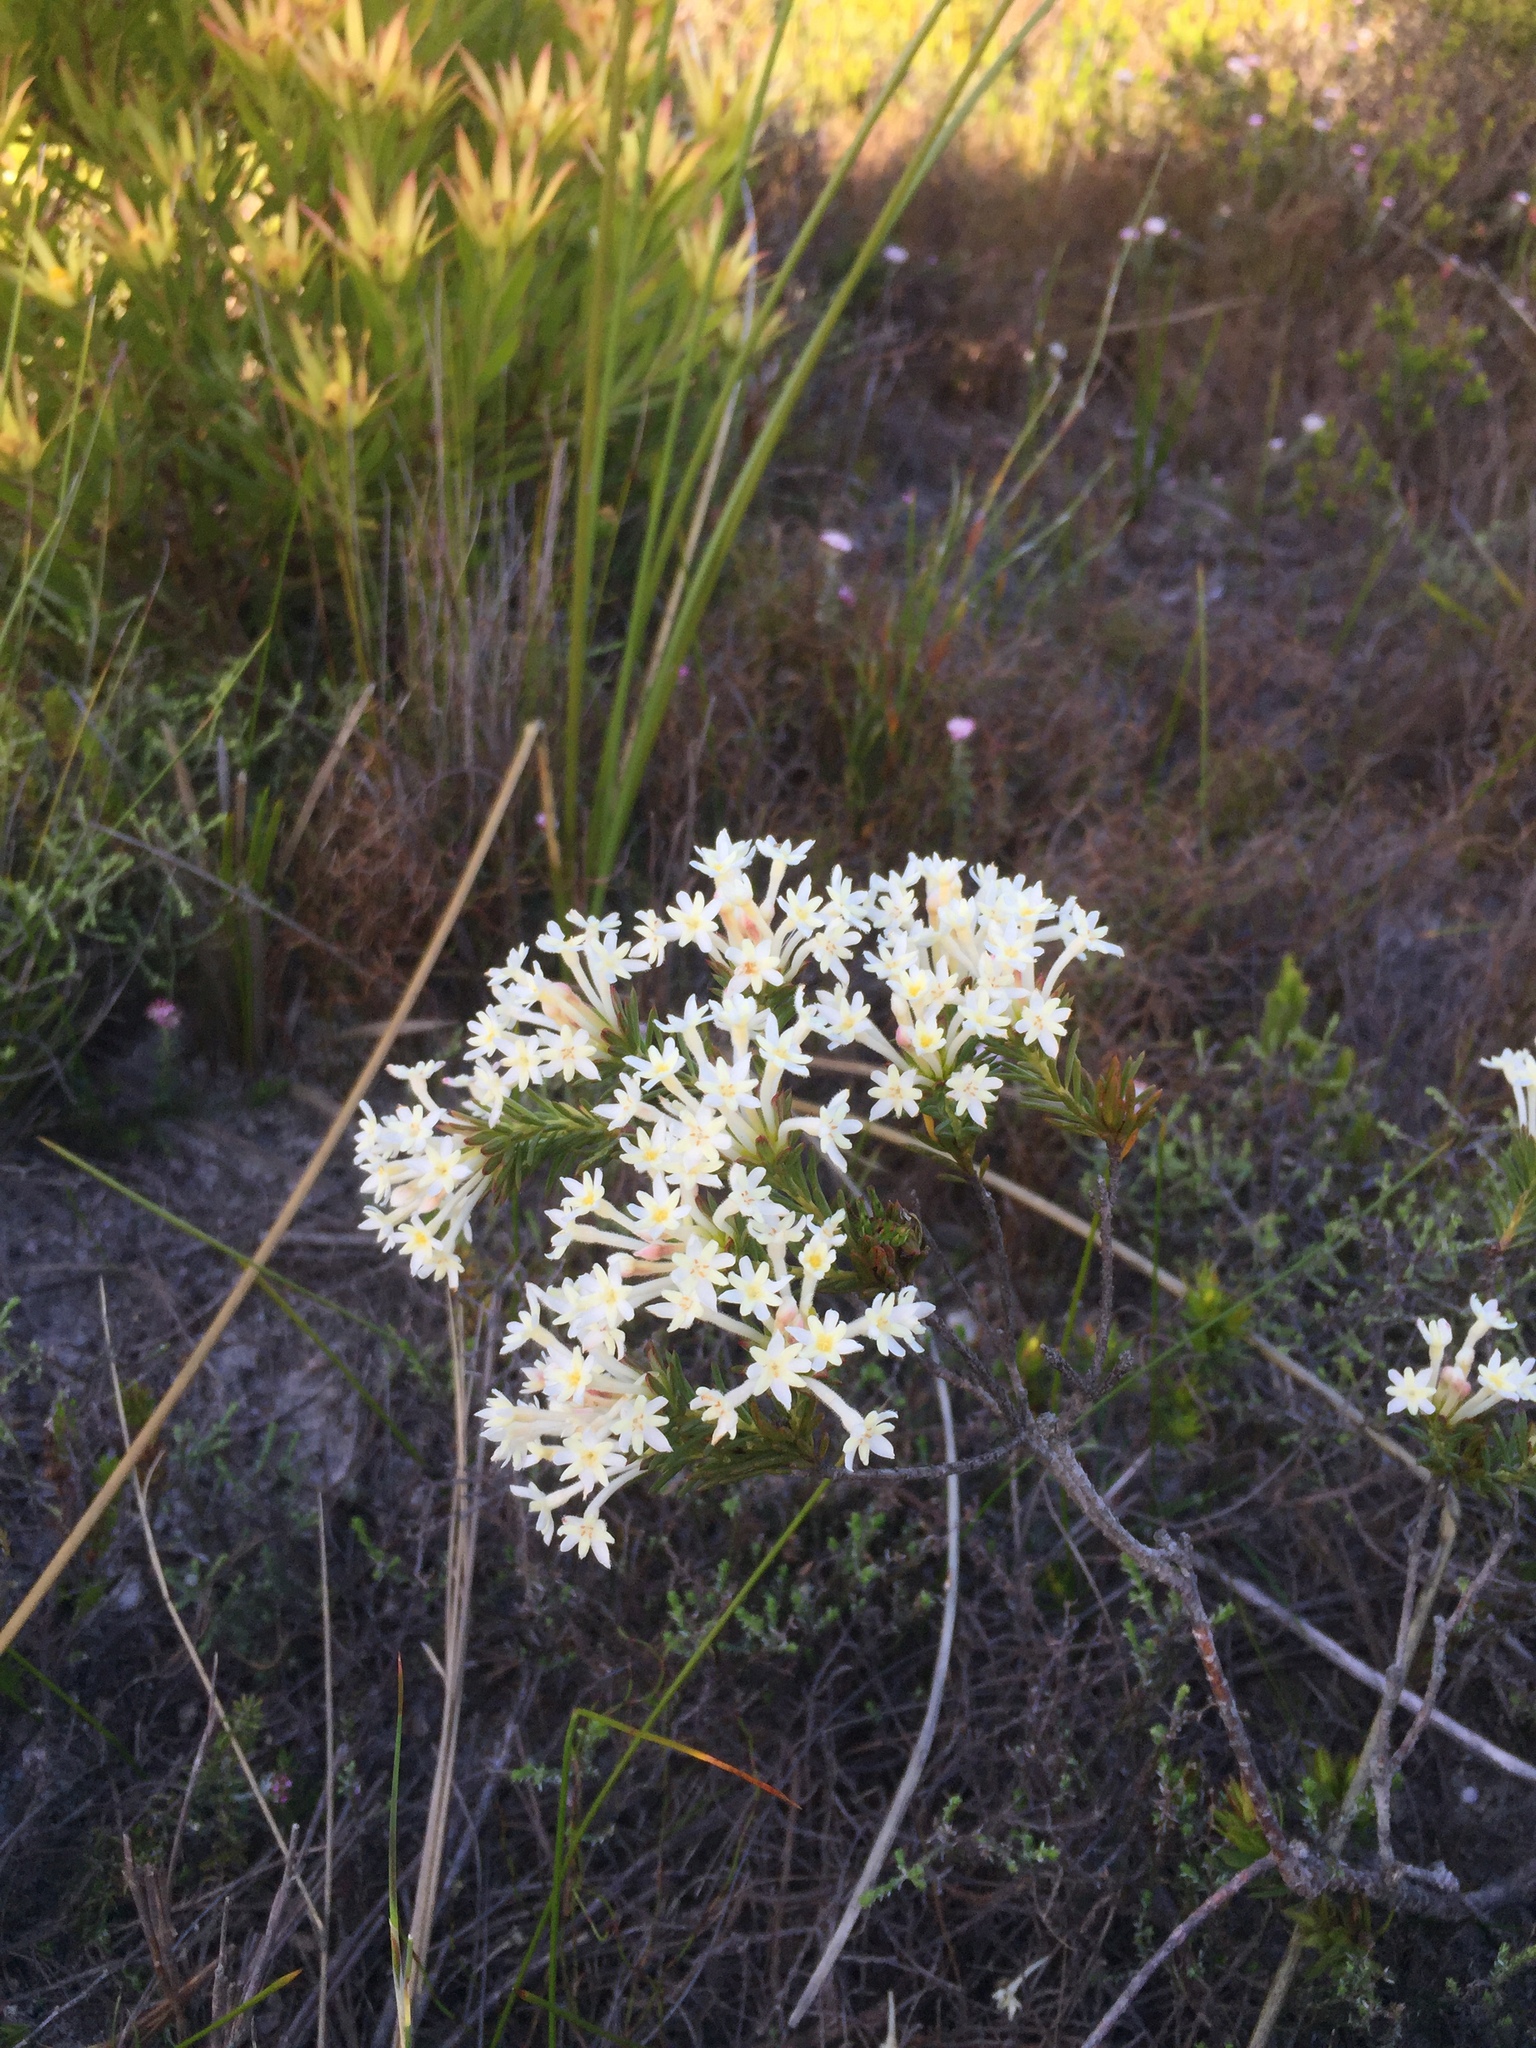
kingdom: Plantae
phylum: Tracheophyta
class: Magnoliopsida
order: Malvales
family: Thymelaeaceae
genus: Gnidia
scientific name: Gnidia pinifolia
